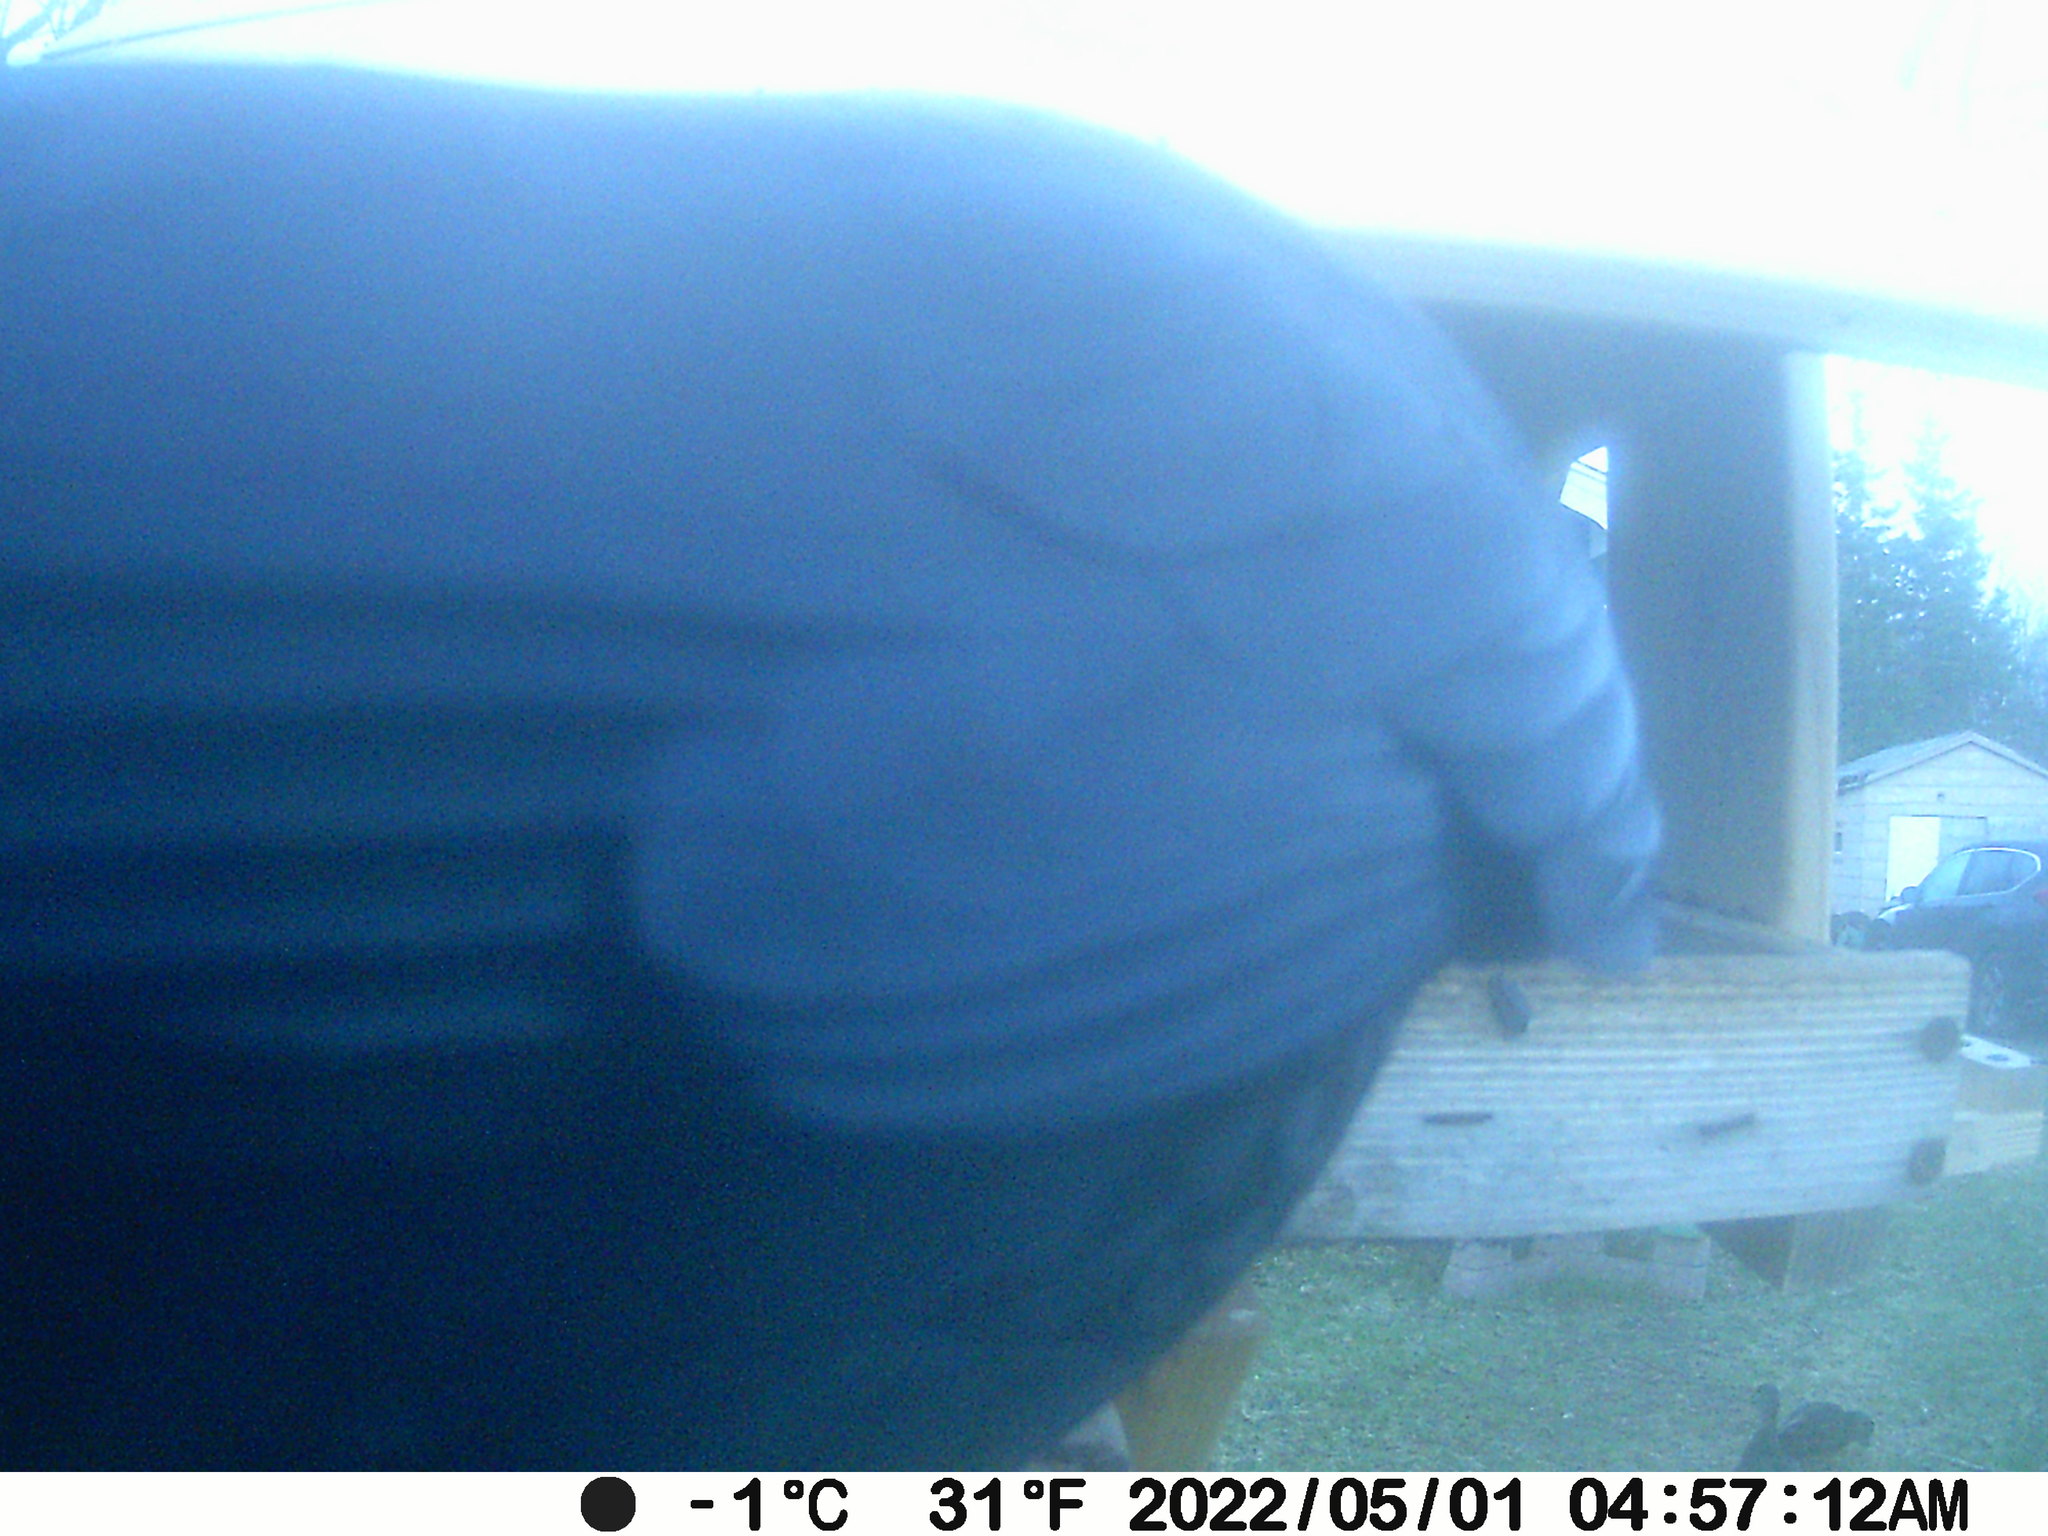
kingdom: Animalia
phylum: Chordata
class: Aves
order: Anseriformes
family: Anatidae
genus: Anas
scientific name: Anas rubripes
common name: American black duck
